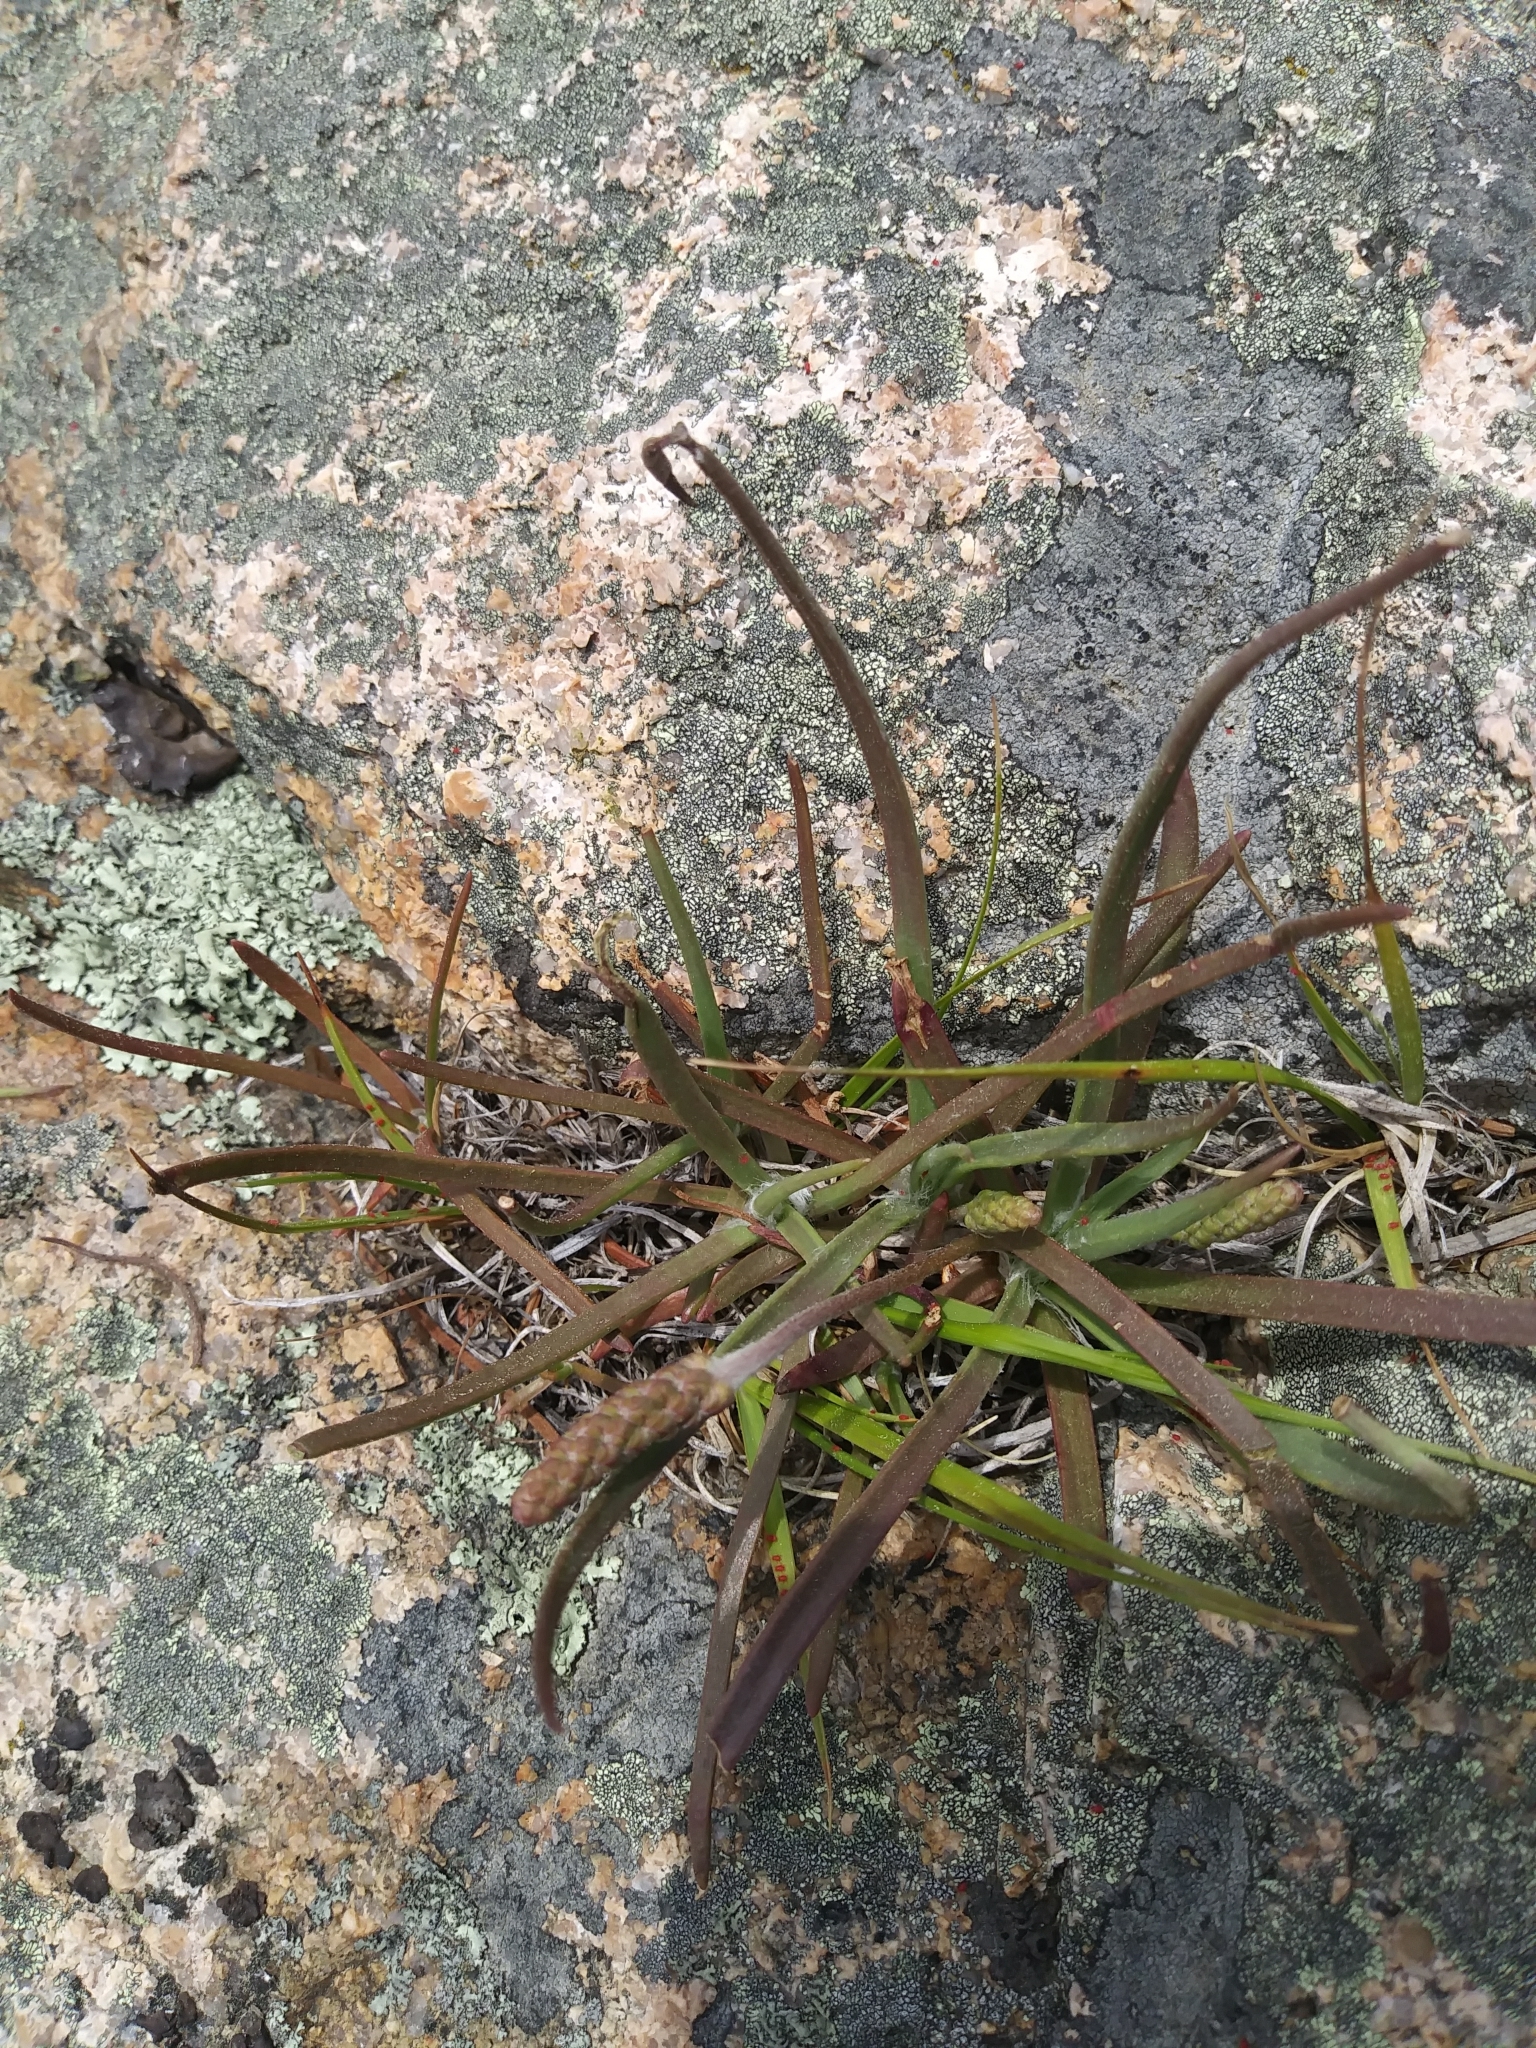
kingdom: Plantae
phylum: Tracheophyta
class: Magnoliopsida
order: Lamiales
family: Plantaginaceae
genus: Plantago
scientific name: Plantago maritima
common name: Sea plantain
